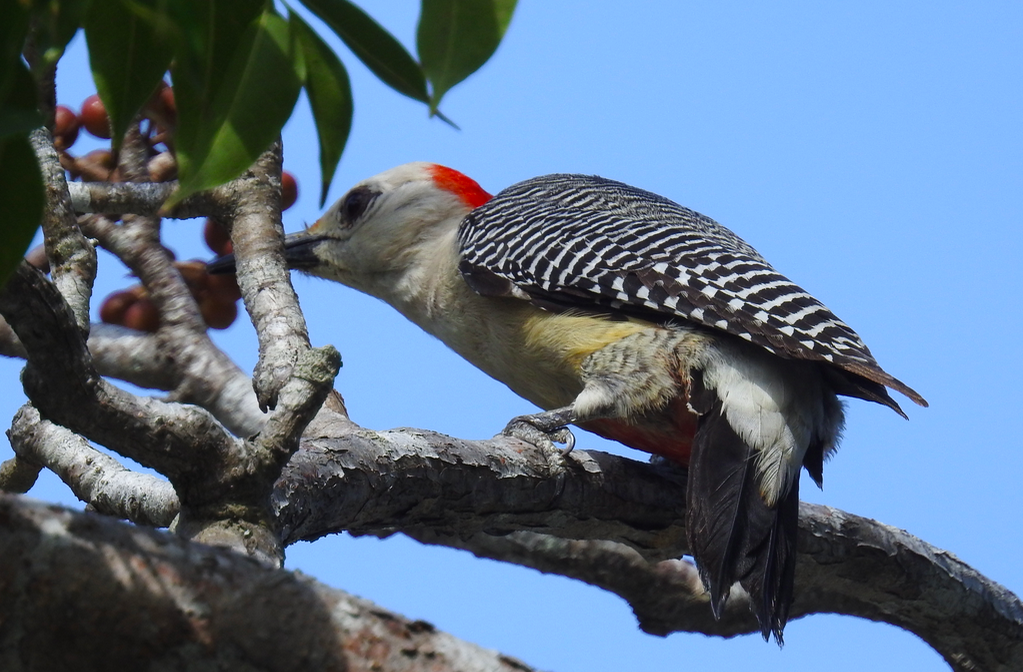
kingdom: Animalia
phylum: Chordata
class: Aves
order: Piciformes
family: Picidae
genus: Melanerpes
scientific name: Melanerpes santacruzi
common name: Velasquez's woodpecker
